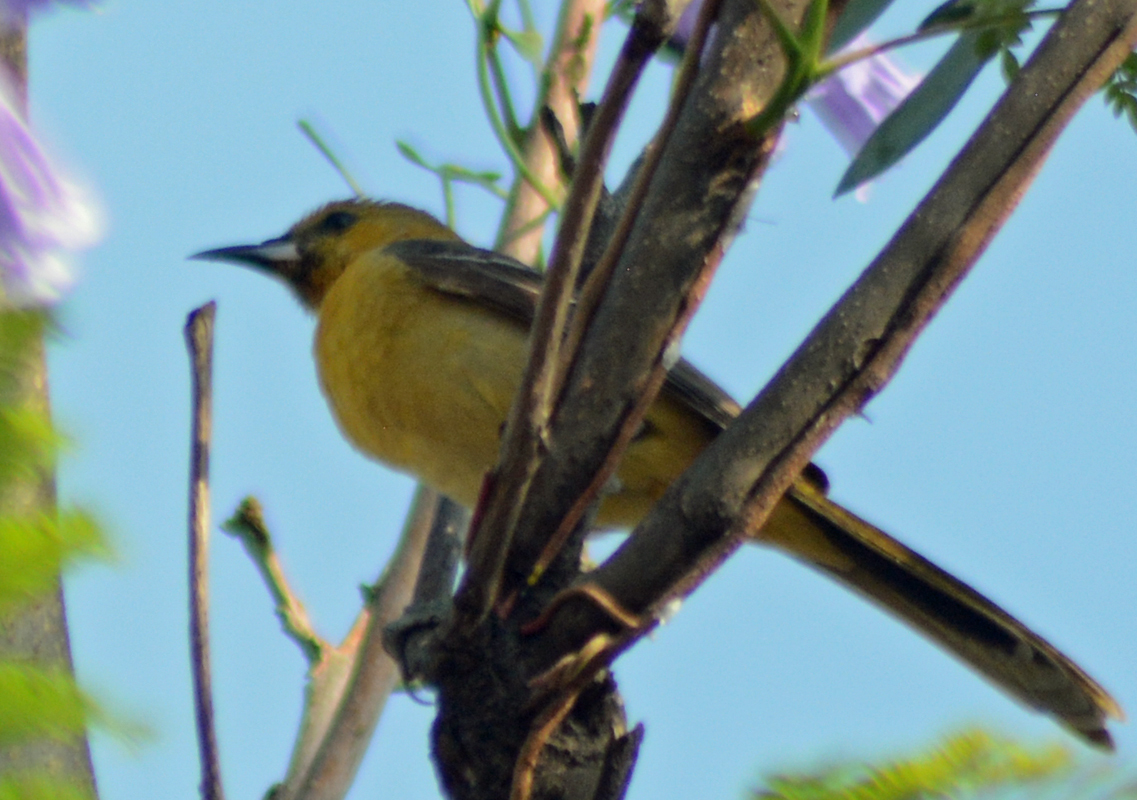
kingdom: Animalia
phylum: Chordata
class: Aves
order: Passeriformes
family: Icteridae
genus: Icterus
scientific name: Icterus cucullatus
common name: Hooded oriole
